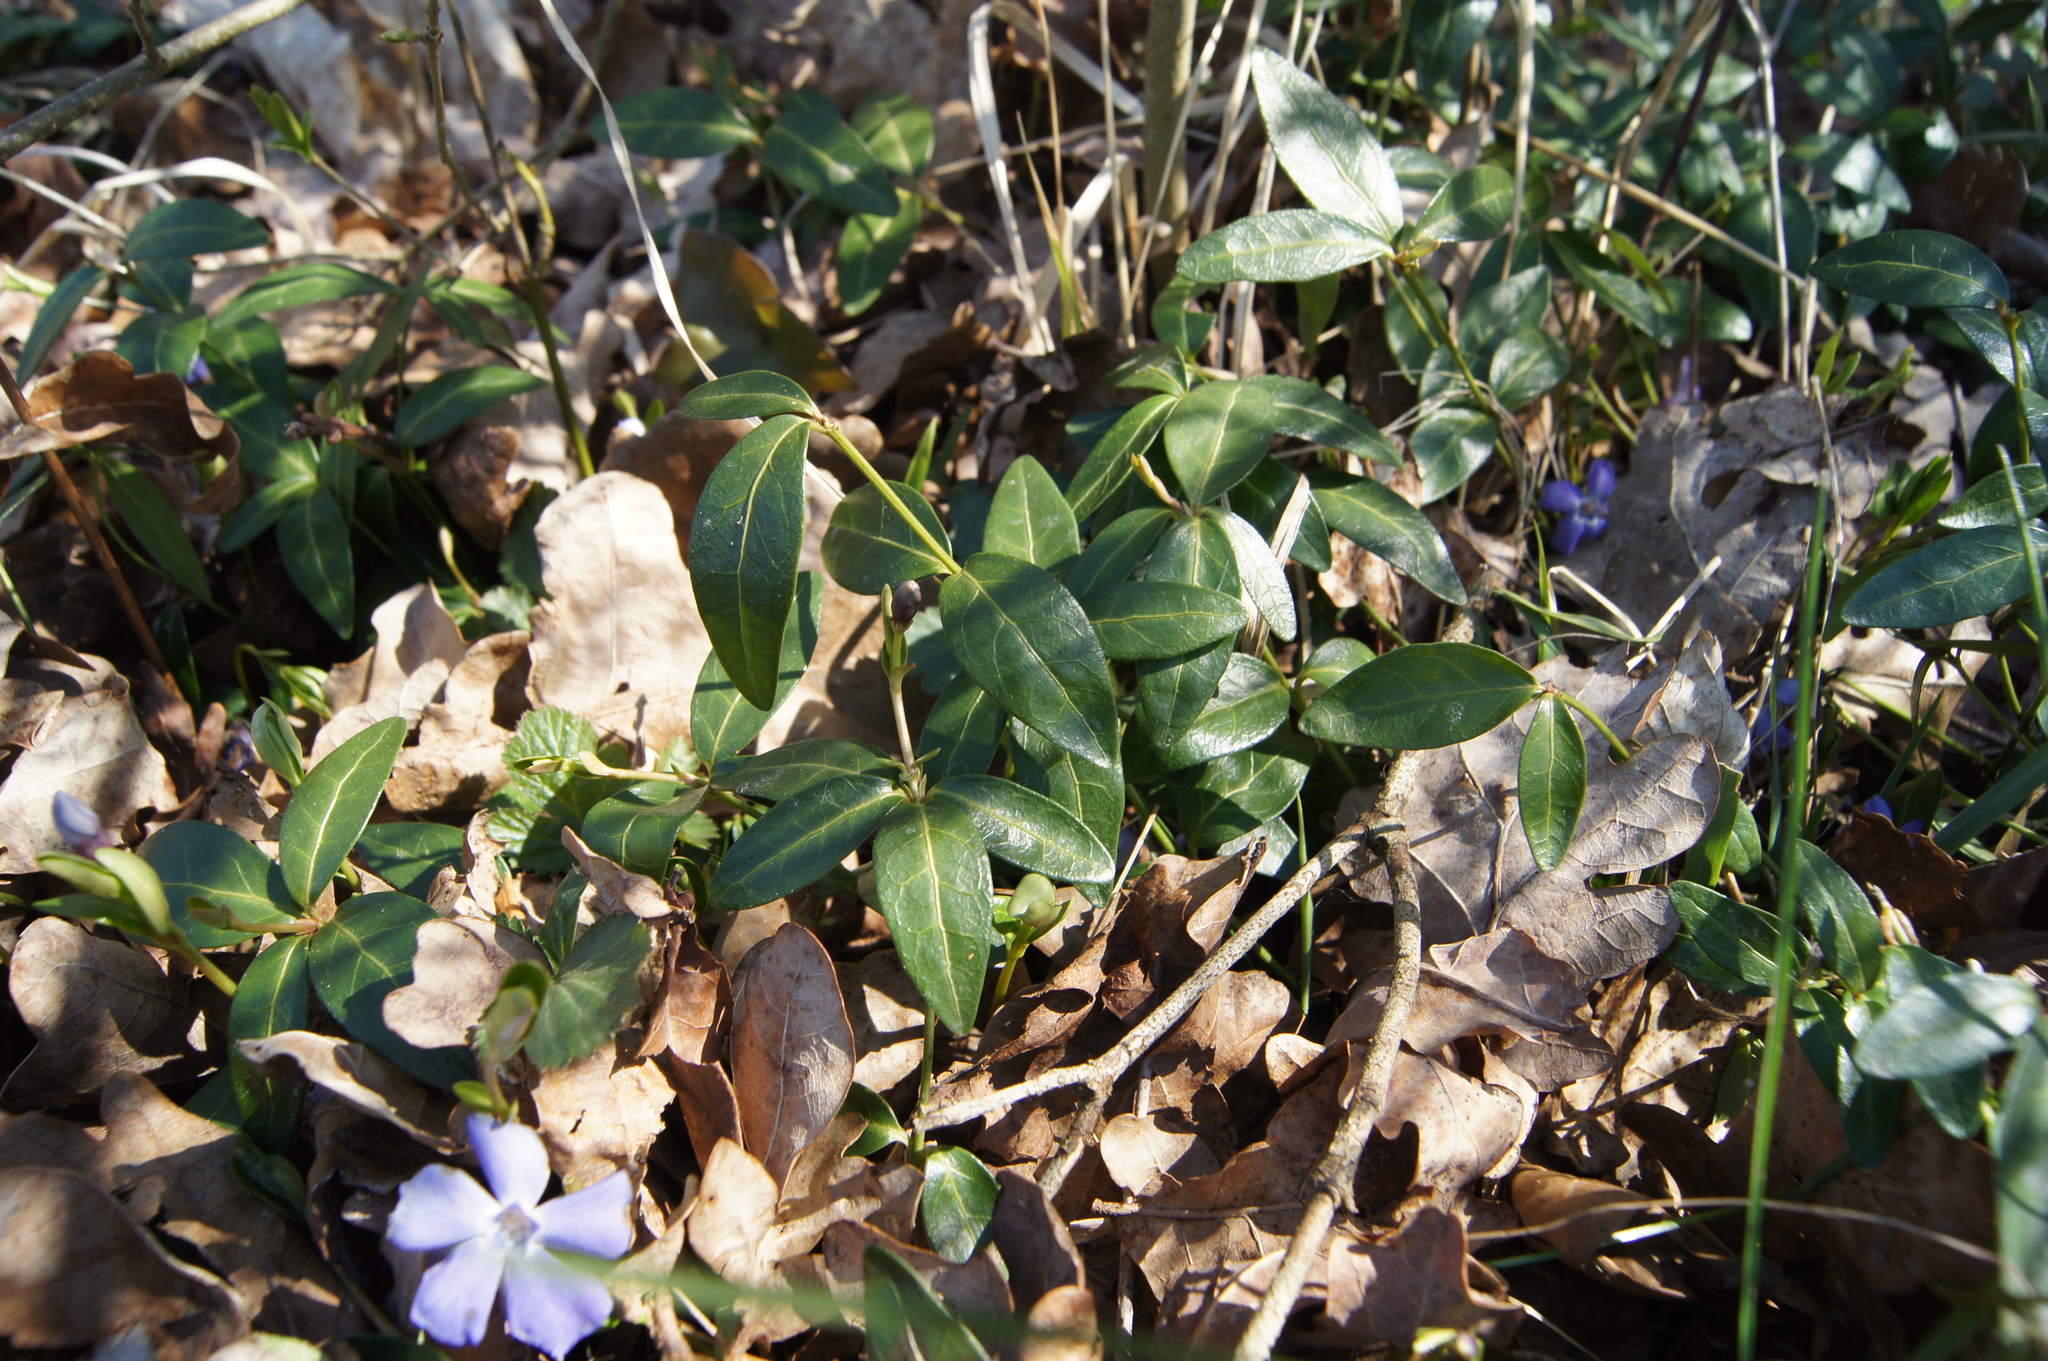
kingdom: Plantae
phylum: Tracheophyta
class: Magnoliopsida
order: Gentianales
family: Apocynaceae
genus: Vinca
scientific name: Vinca minor
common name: Lesser periwinkle
